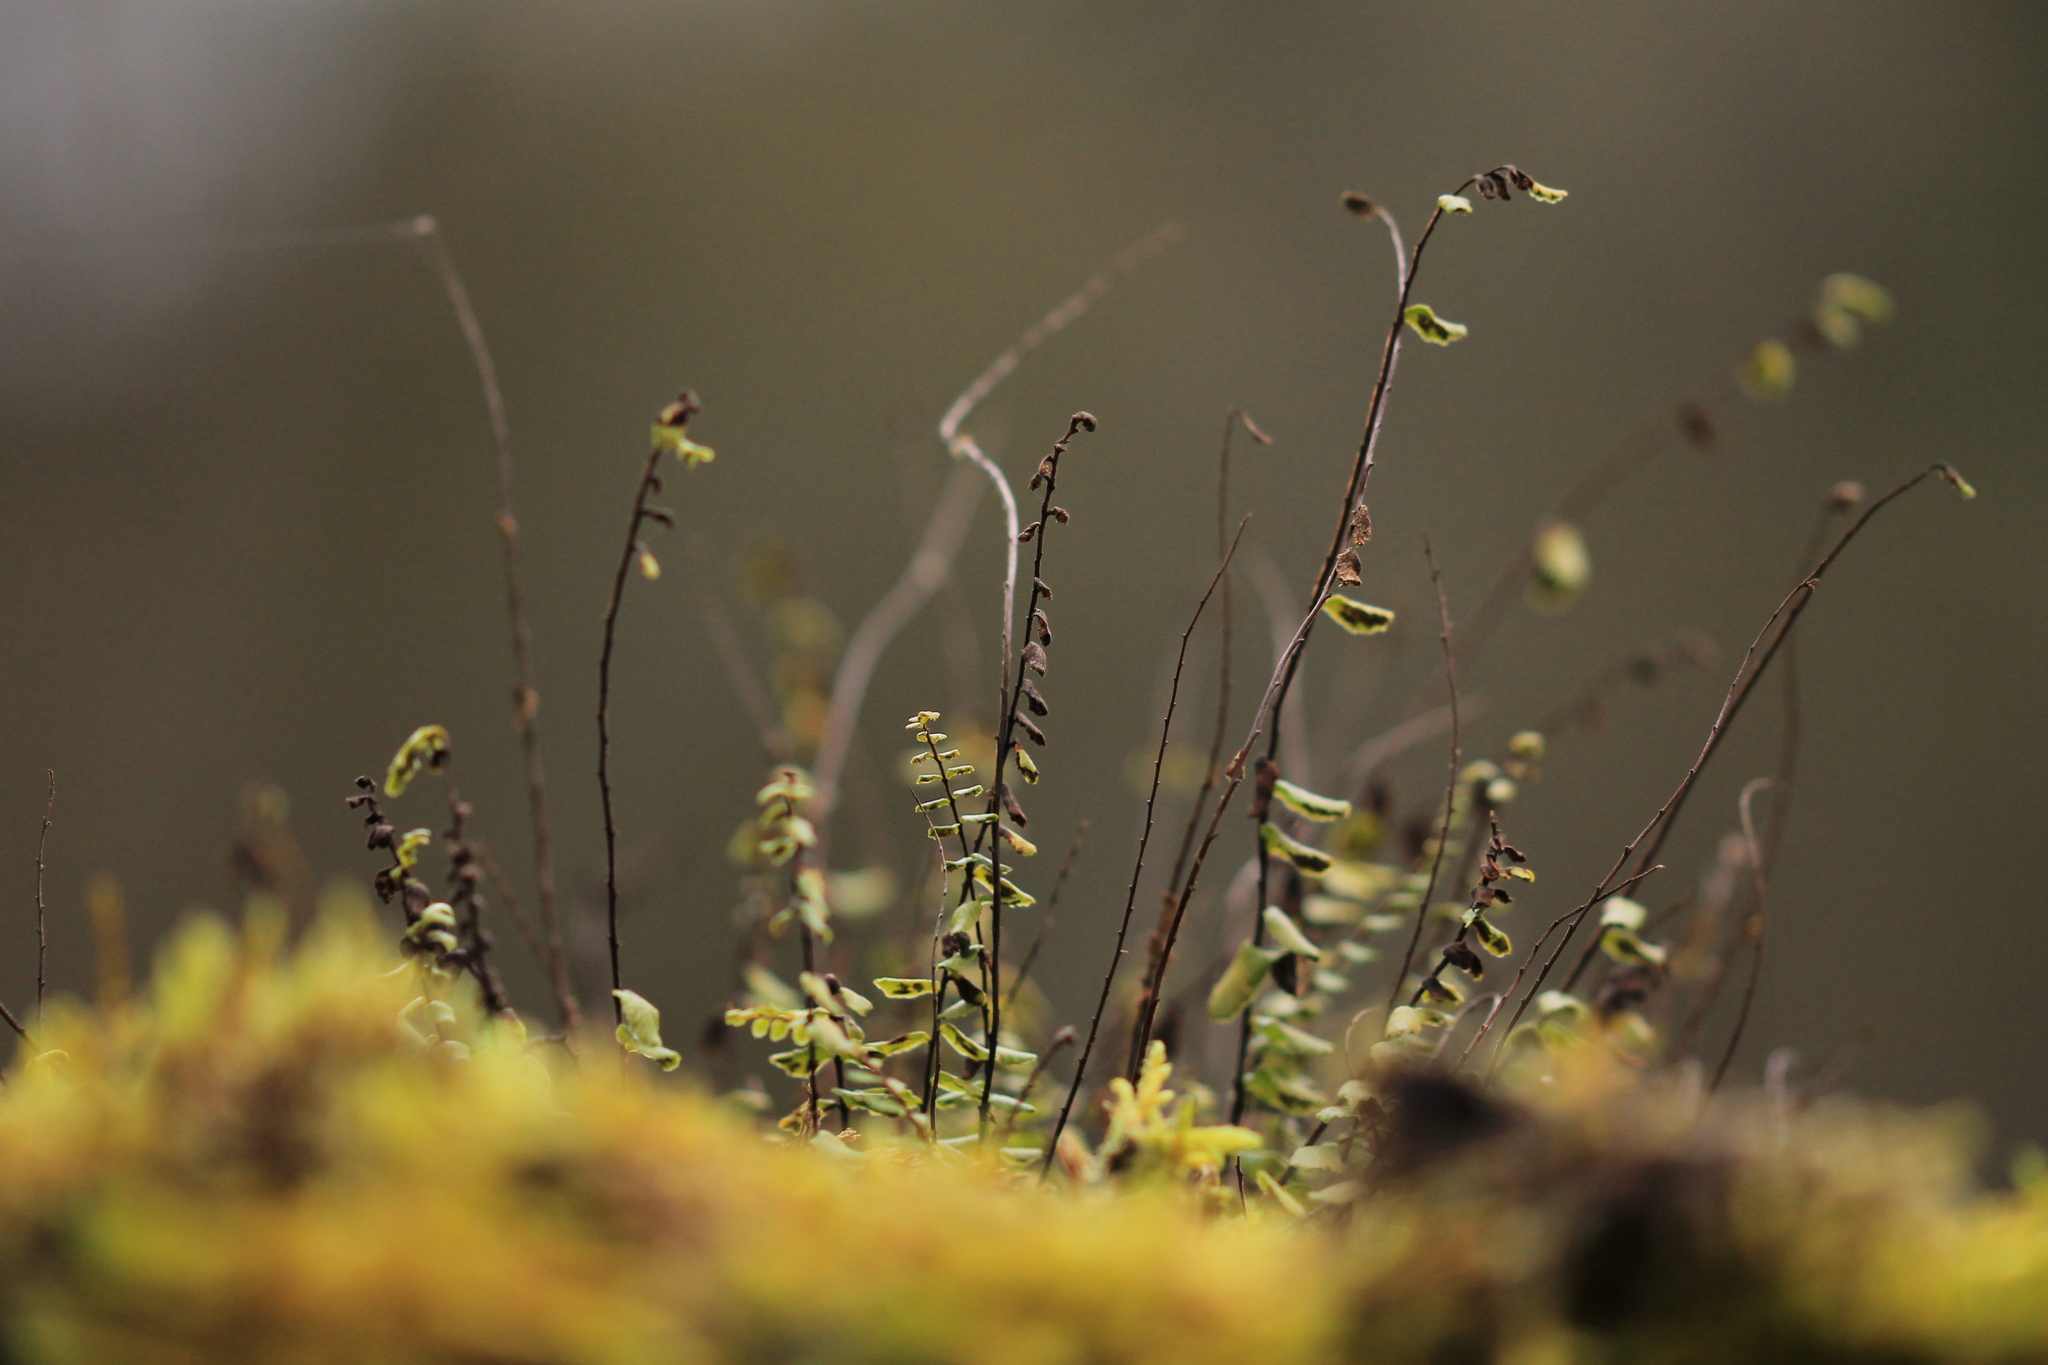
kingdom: Plantae
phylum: Tracheophyta
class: Polypodiopsida
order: Polypodiales
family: Aspleniaceae
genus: Asplenium
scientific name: Asplenium trichomanes
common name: Maidenhair spleenwort
